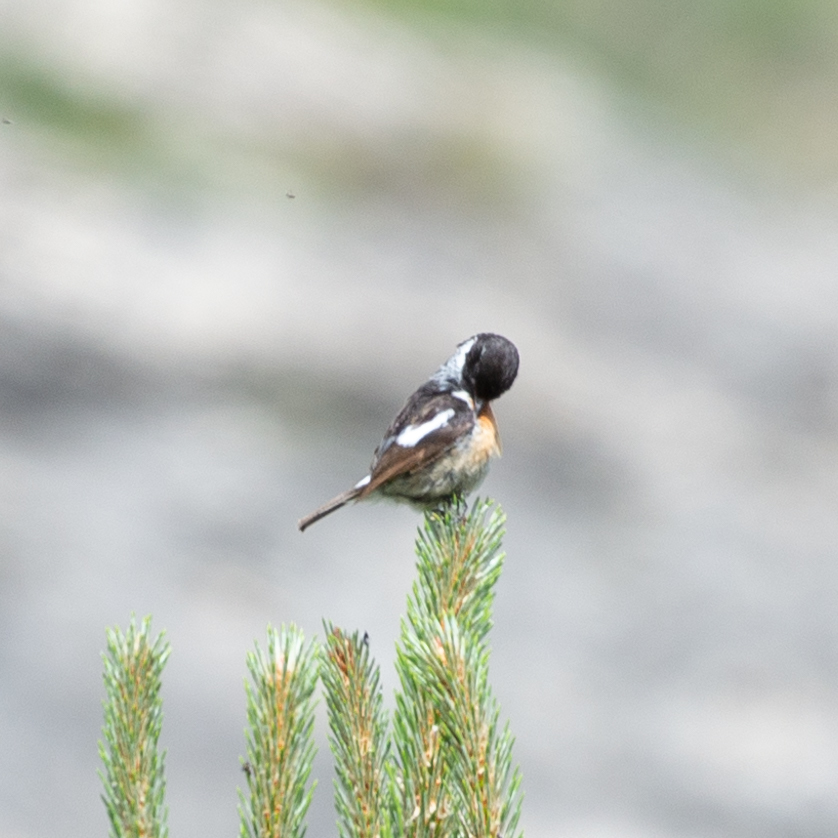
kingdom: Animalia
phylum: Chordata
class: Aves
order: Passeriformes
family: Muscicapidae
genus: Saxicola
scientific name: Saxicola rubicola
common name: European stonechat
